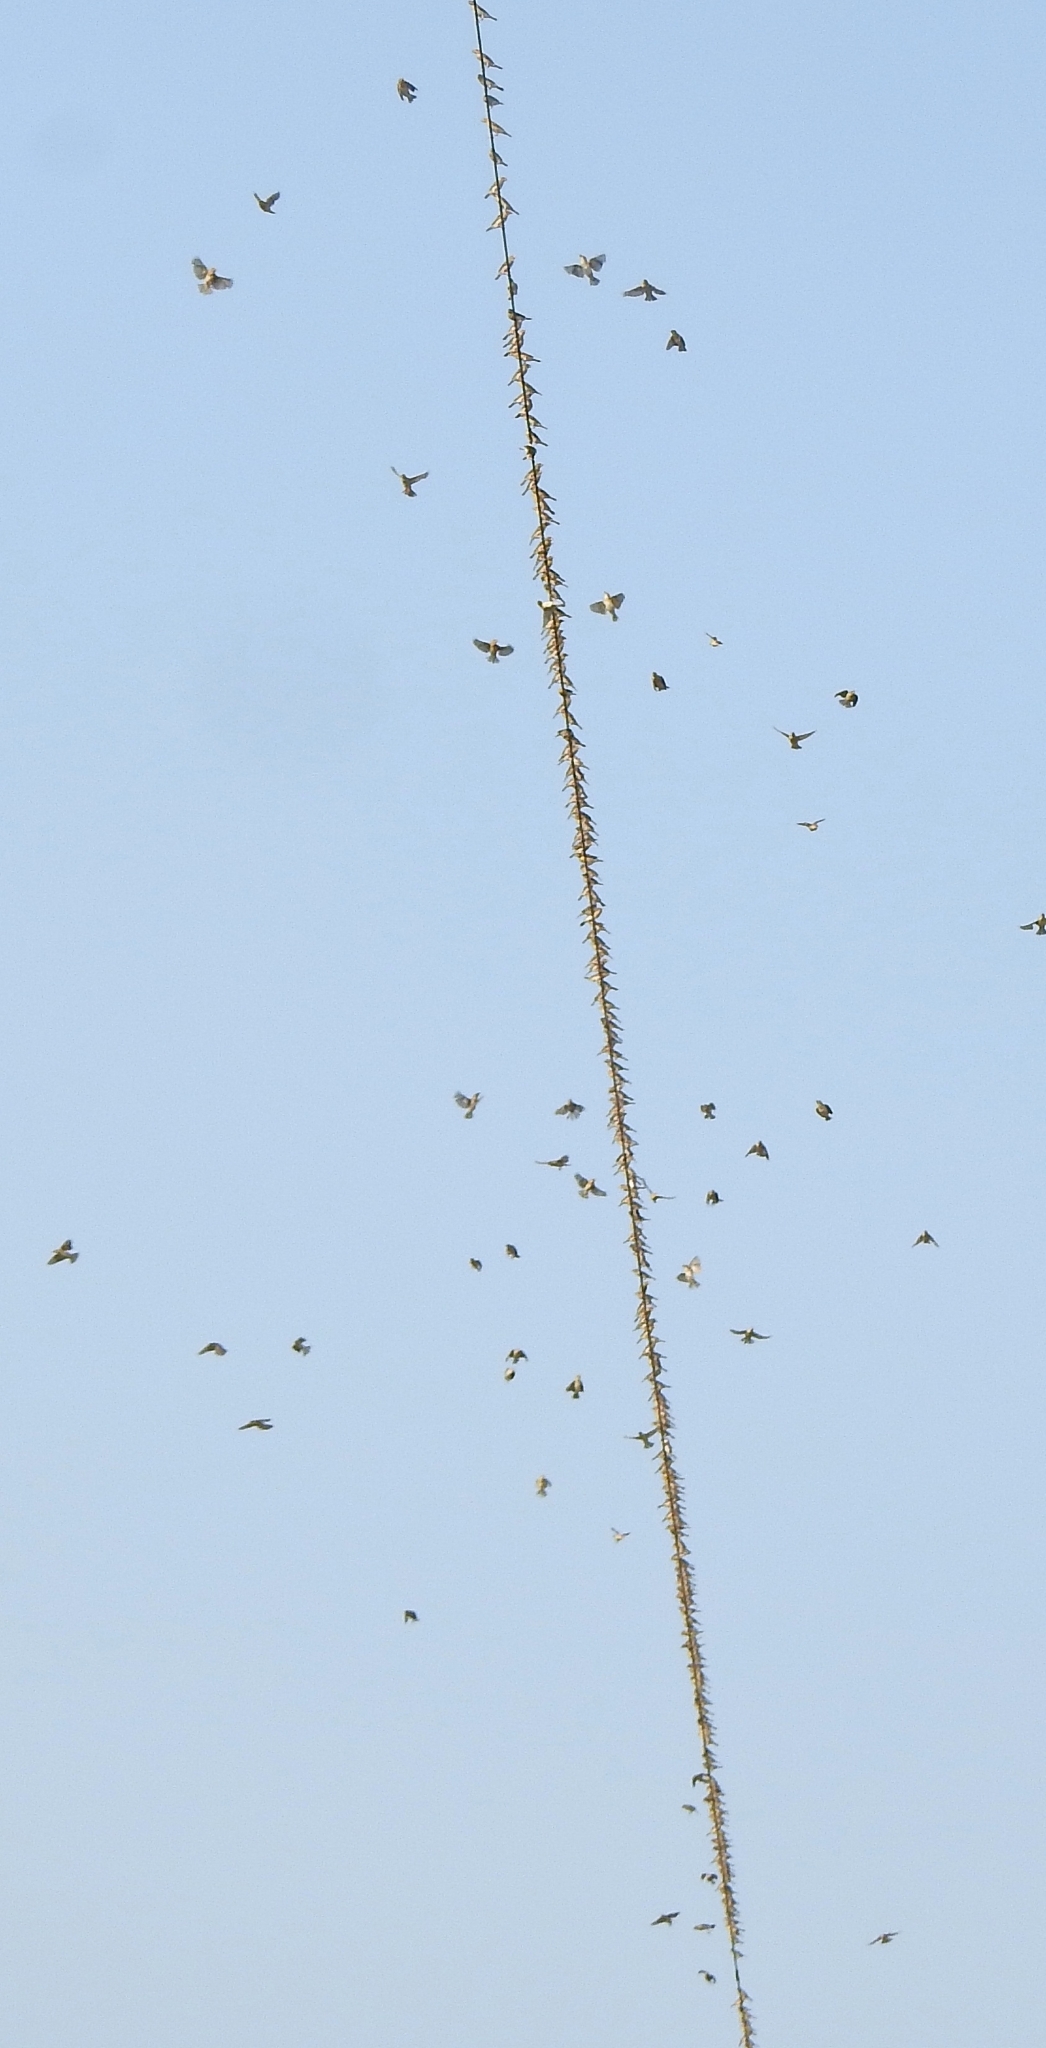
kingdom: Animalia
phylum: Chordata
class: Aves
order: Passeriformes
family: Ploceidae
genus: Ploceus
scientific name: Ploceus philippinus
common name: Baya weaver
